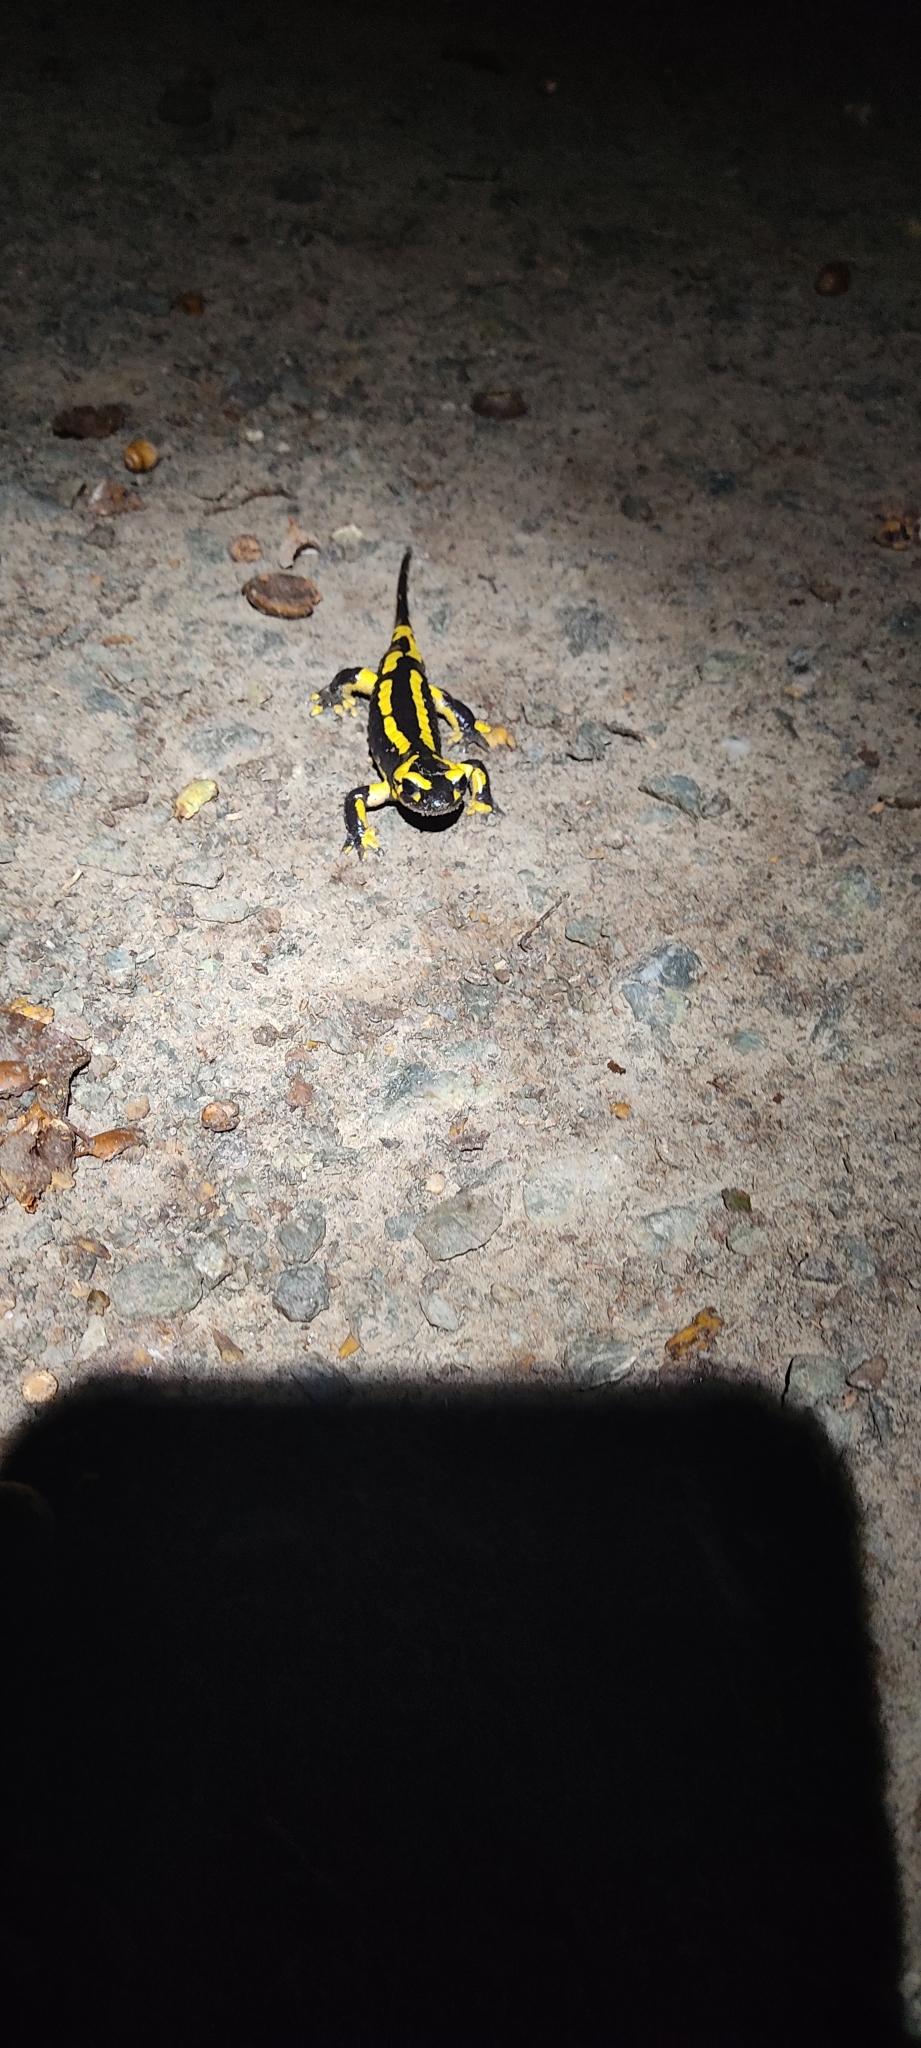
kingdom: Animalia
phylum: Chordata
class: Amphibia
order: Caudata
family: Salamandridae
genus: Salamandra
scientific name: Salamandra salamandra
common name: Fire salamander
